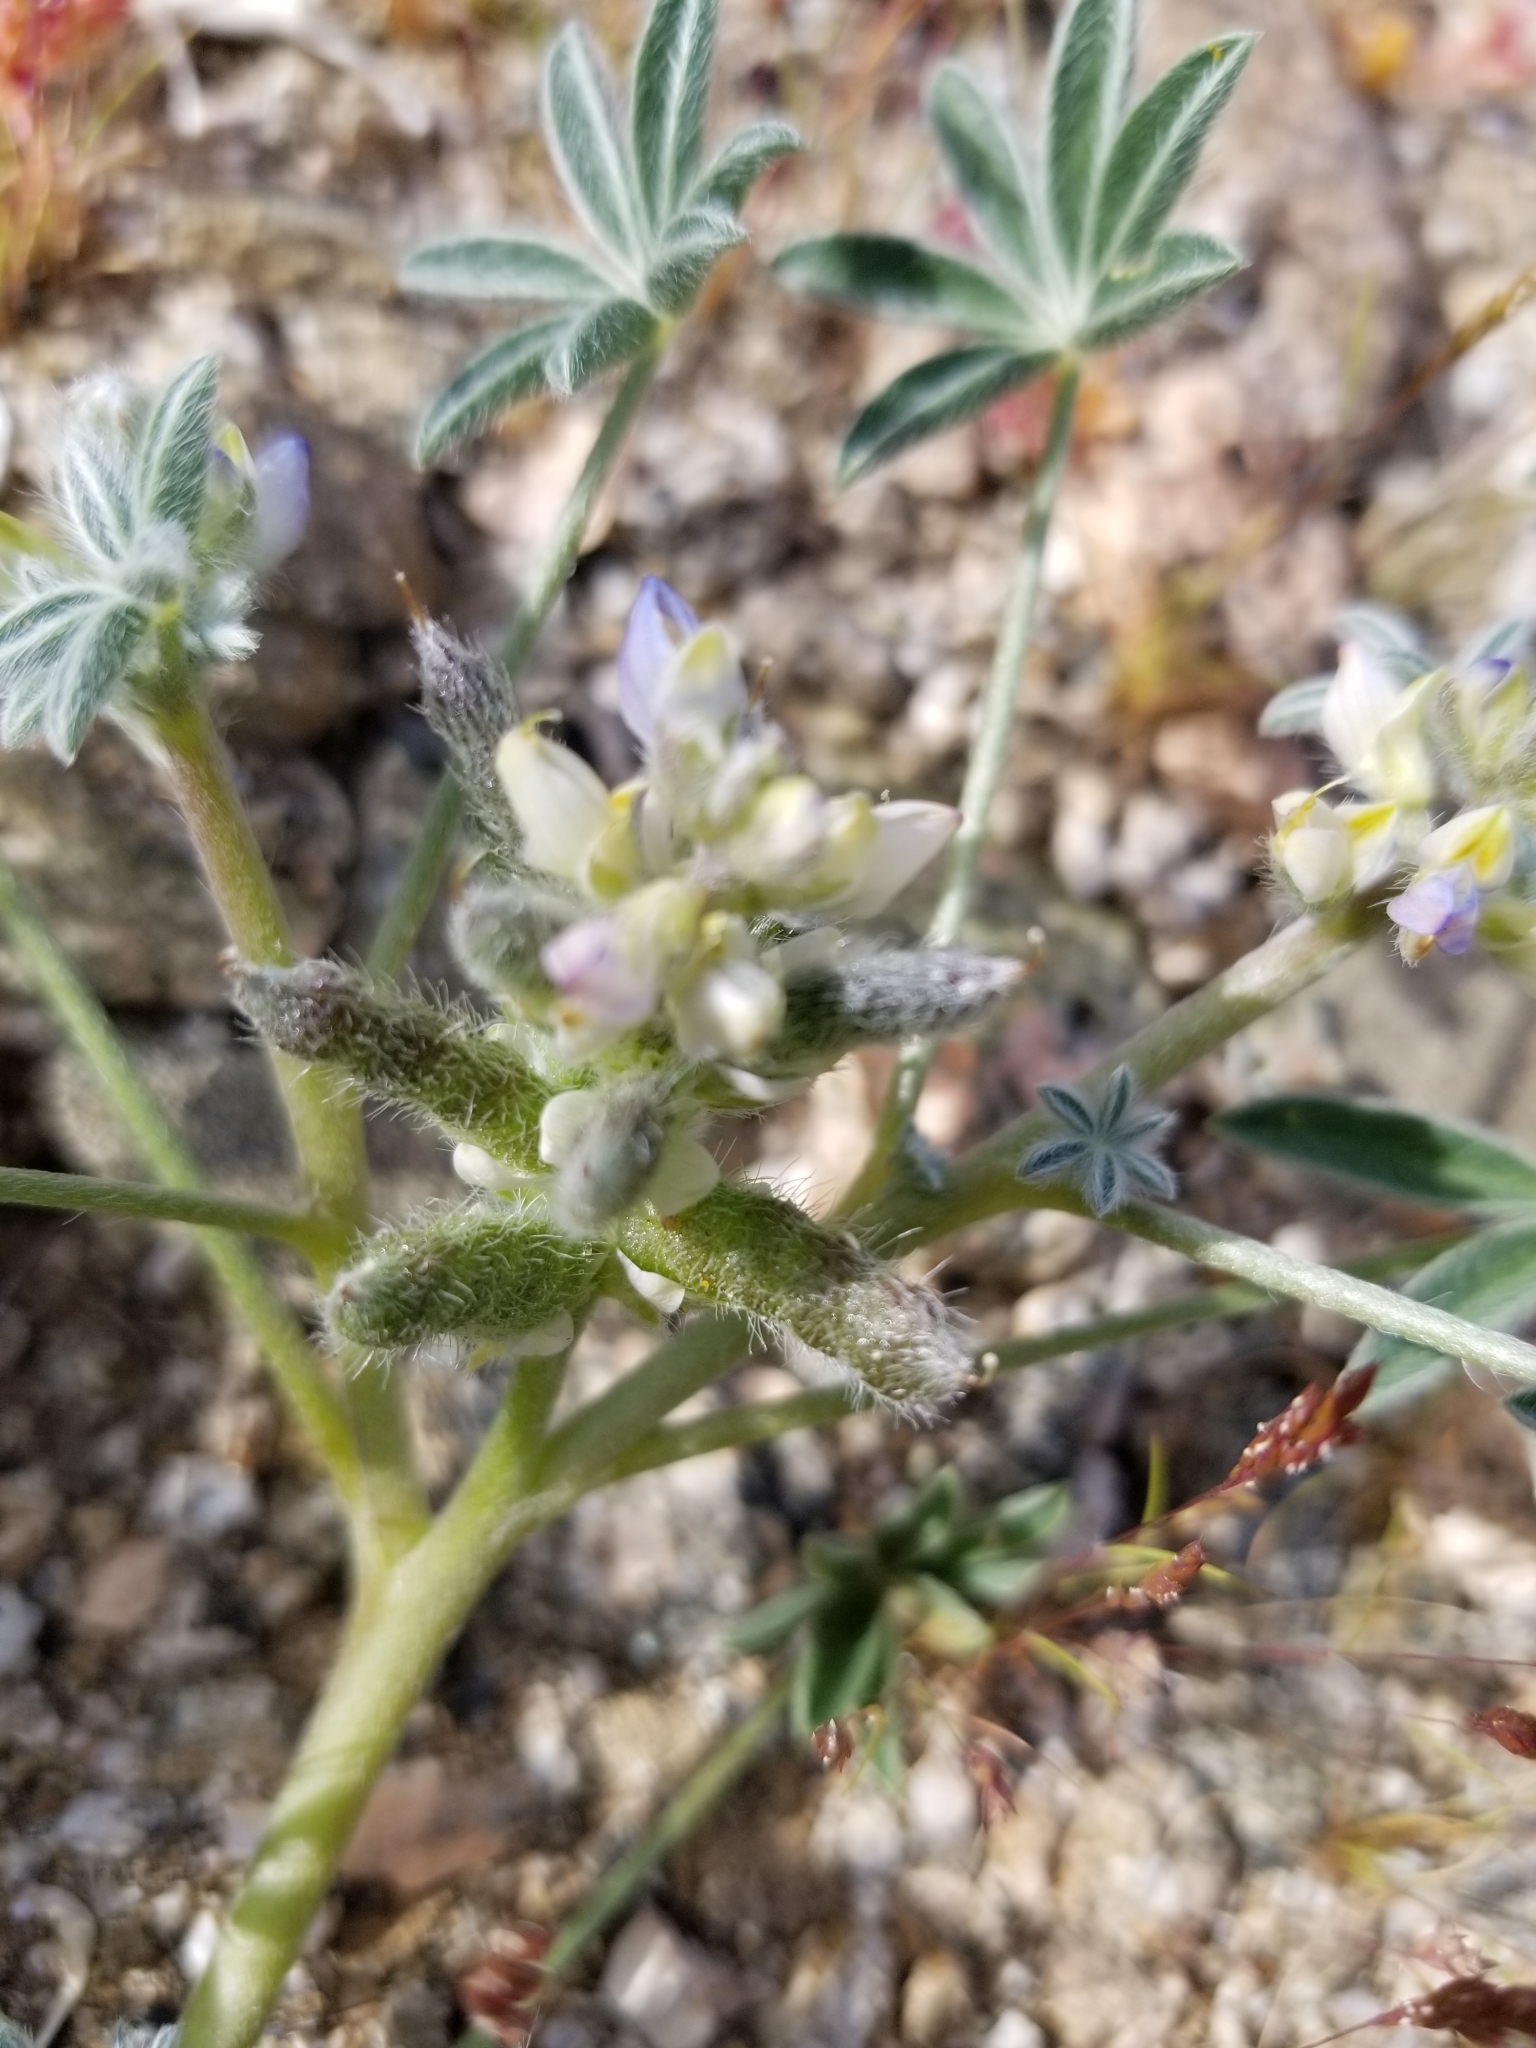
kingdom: Plantae
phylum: Tracheophyta
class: Magnoliopsida
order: Fabales
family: Fabaceae
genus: Lupinus
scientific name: Lupinus concinnus
